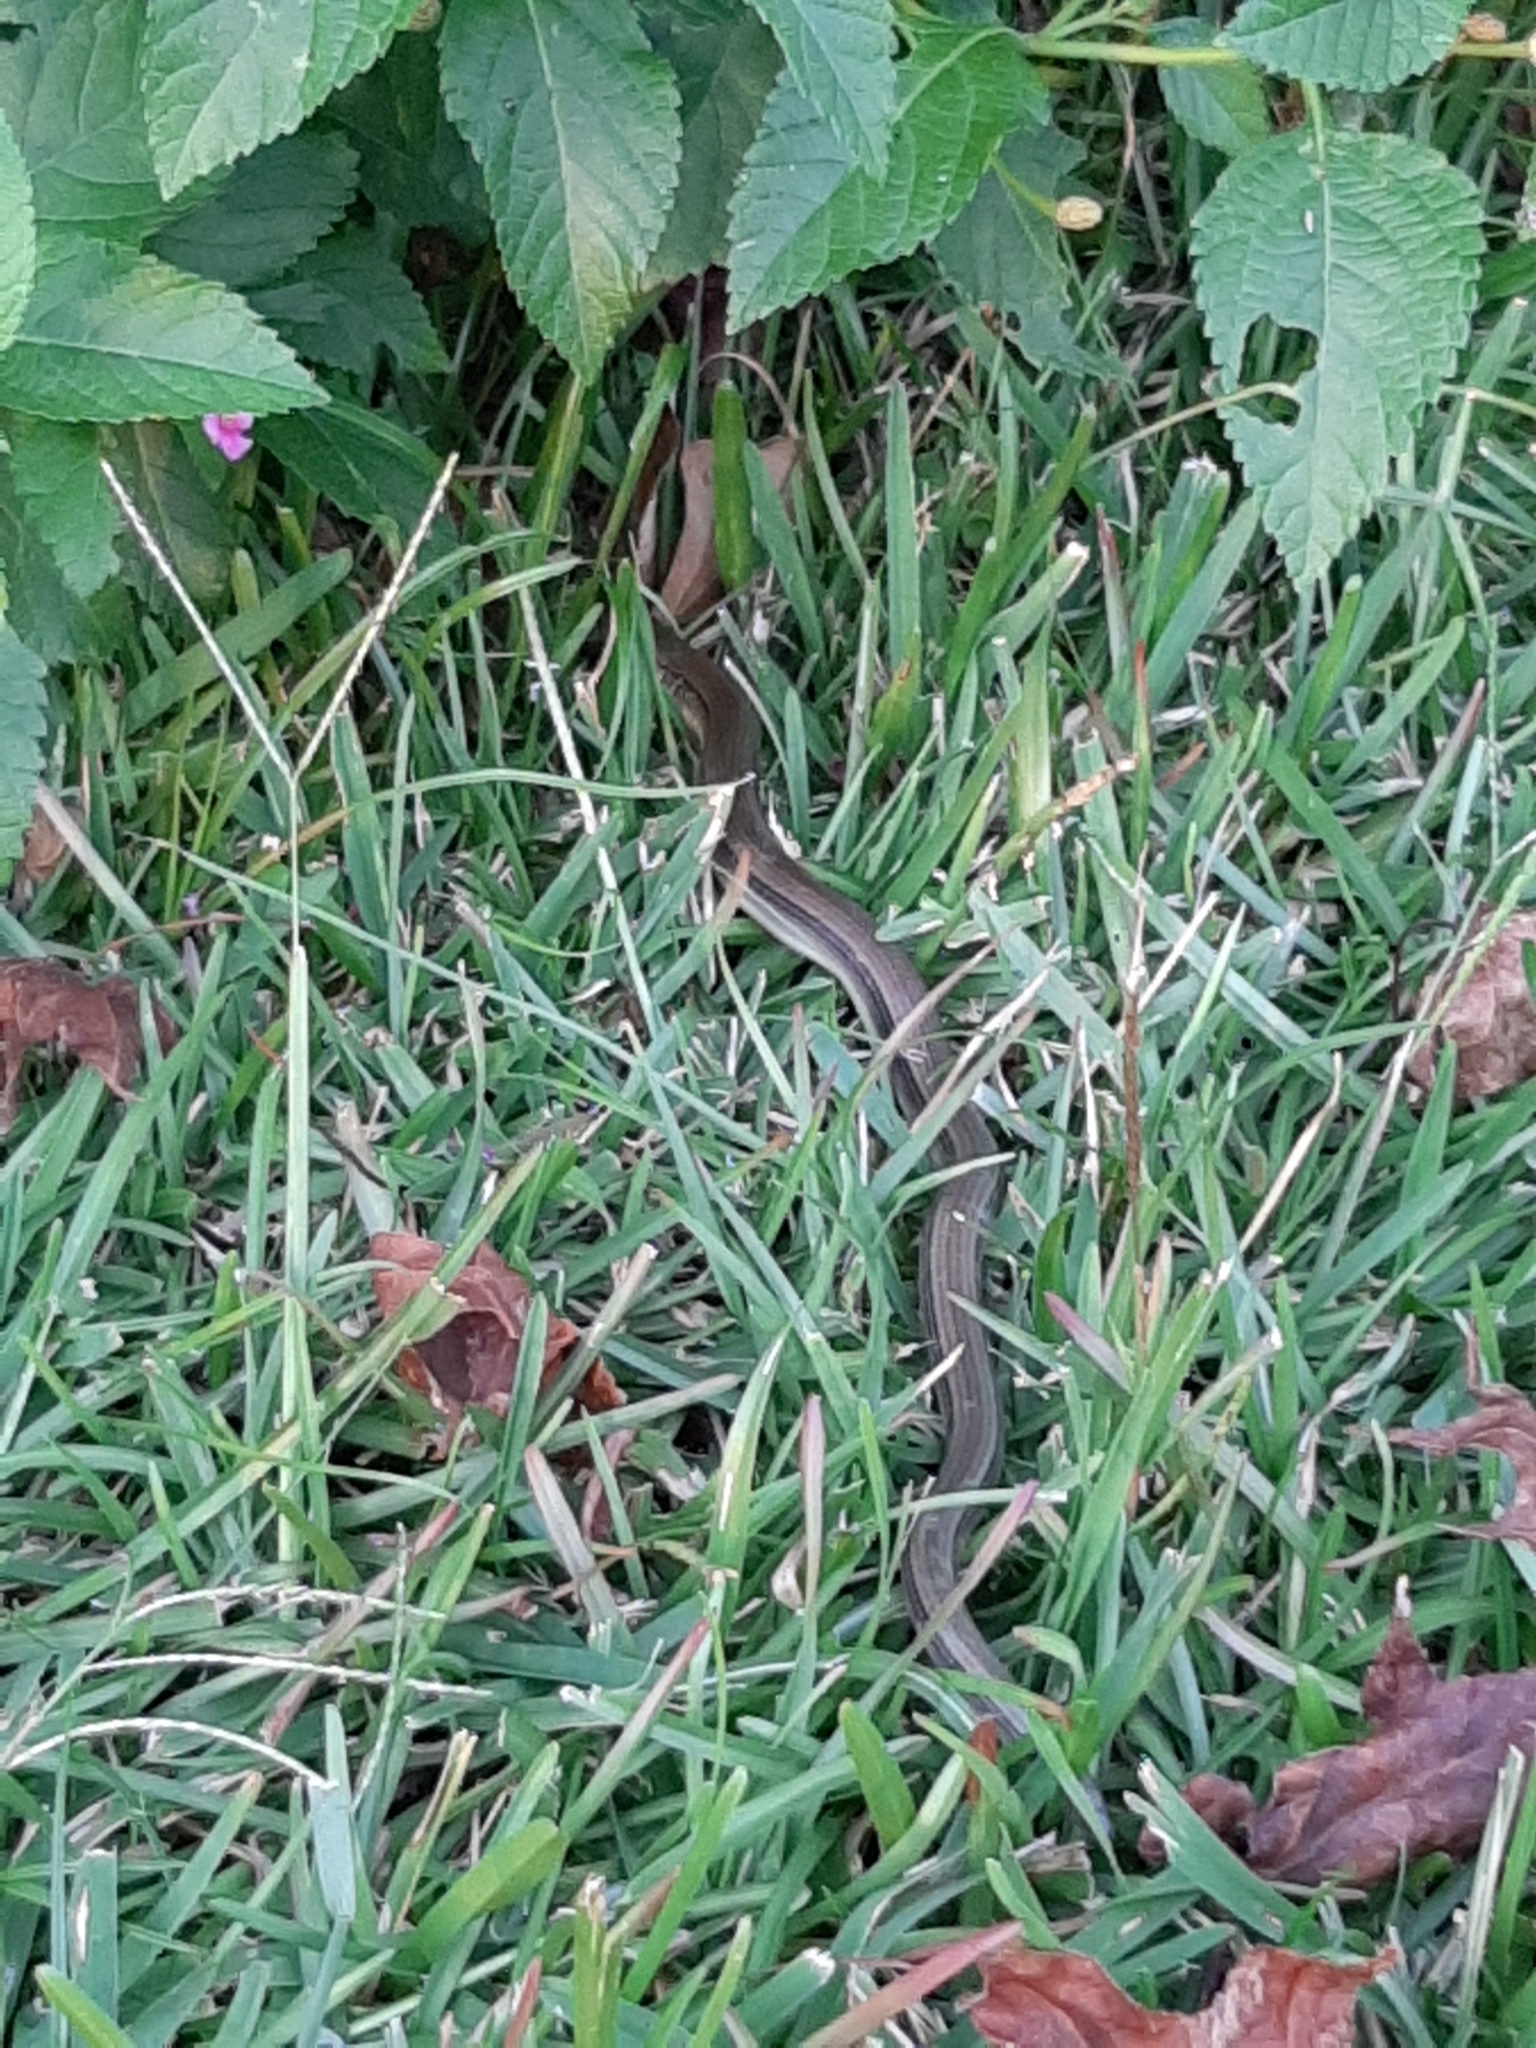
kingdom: Animalia
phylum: Chordata
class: Squamata
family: Anguidae
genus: Ophisaurus
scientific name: Ophisaurus ventralis
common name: Eastern glass lizard
